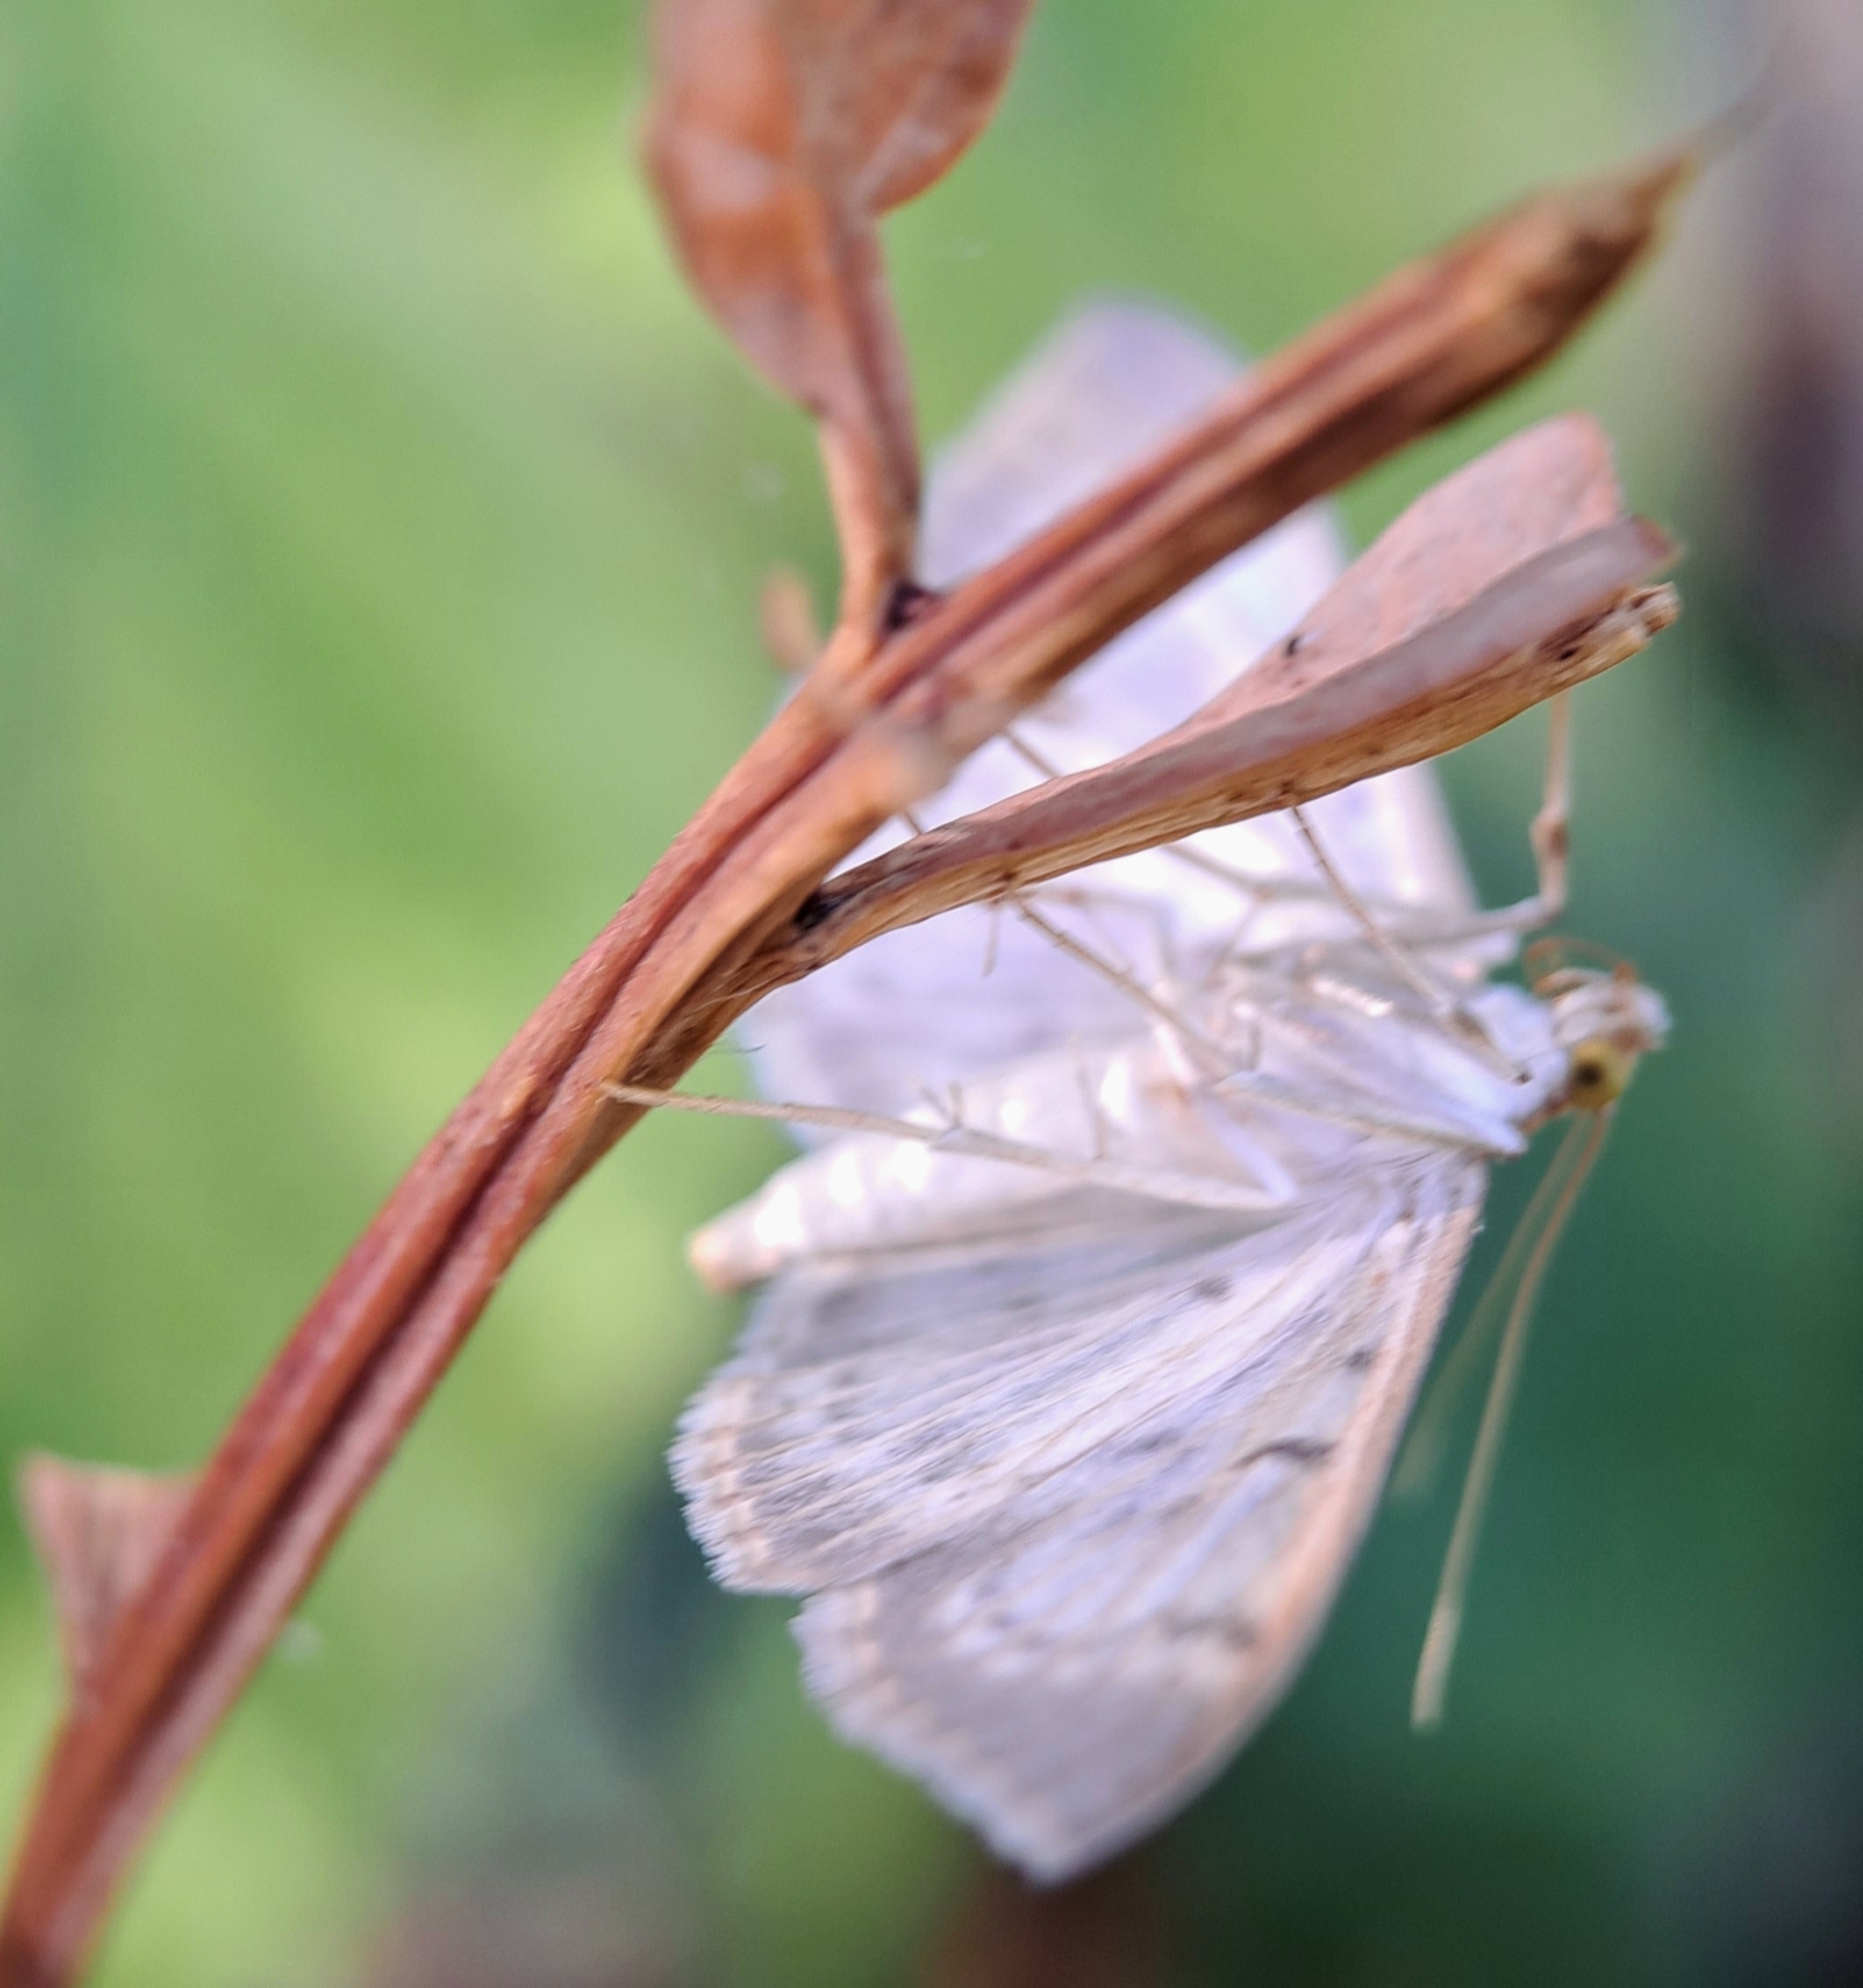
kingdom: Animalia
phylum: Arthropoda
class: Insecta
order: Lepidoptera
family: Crambidae
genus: Patania
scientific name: Patania ruralis
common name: Mother of pearl
